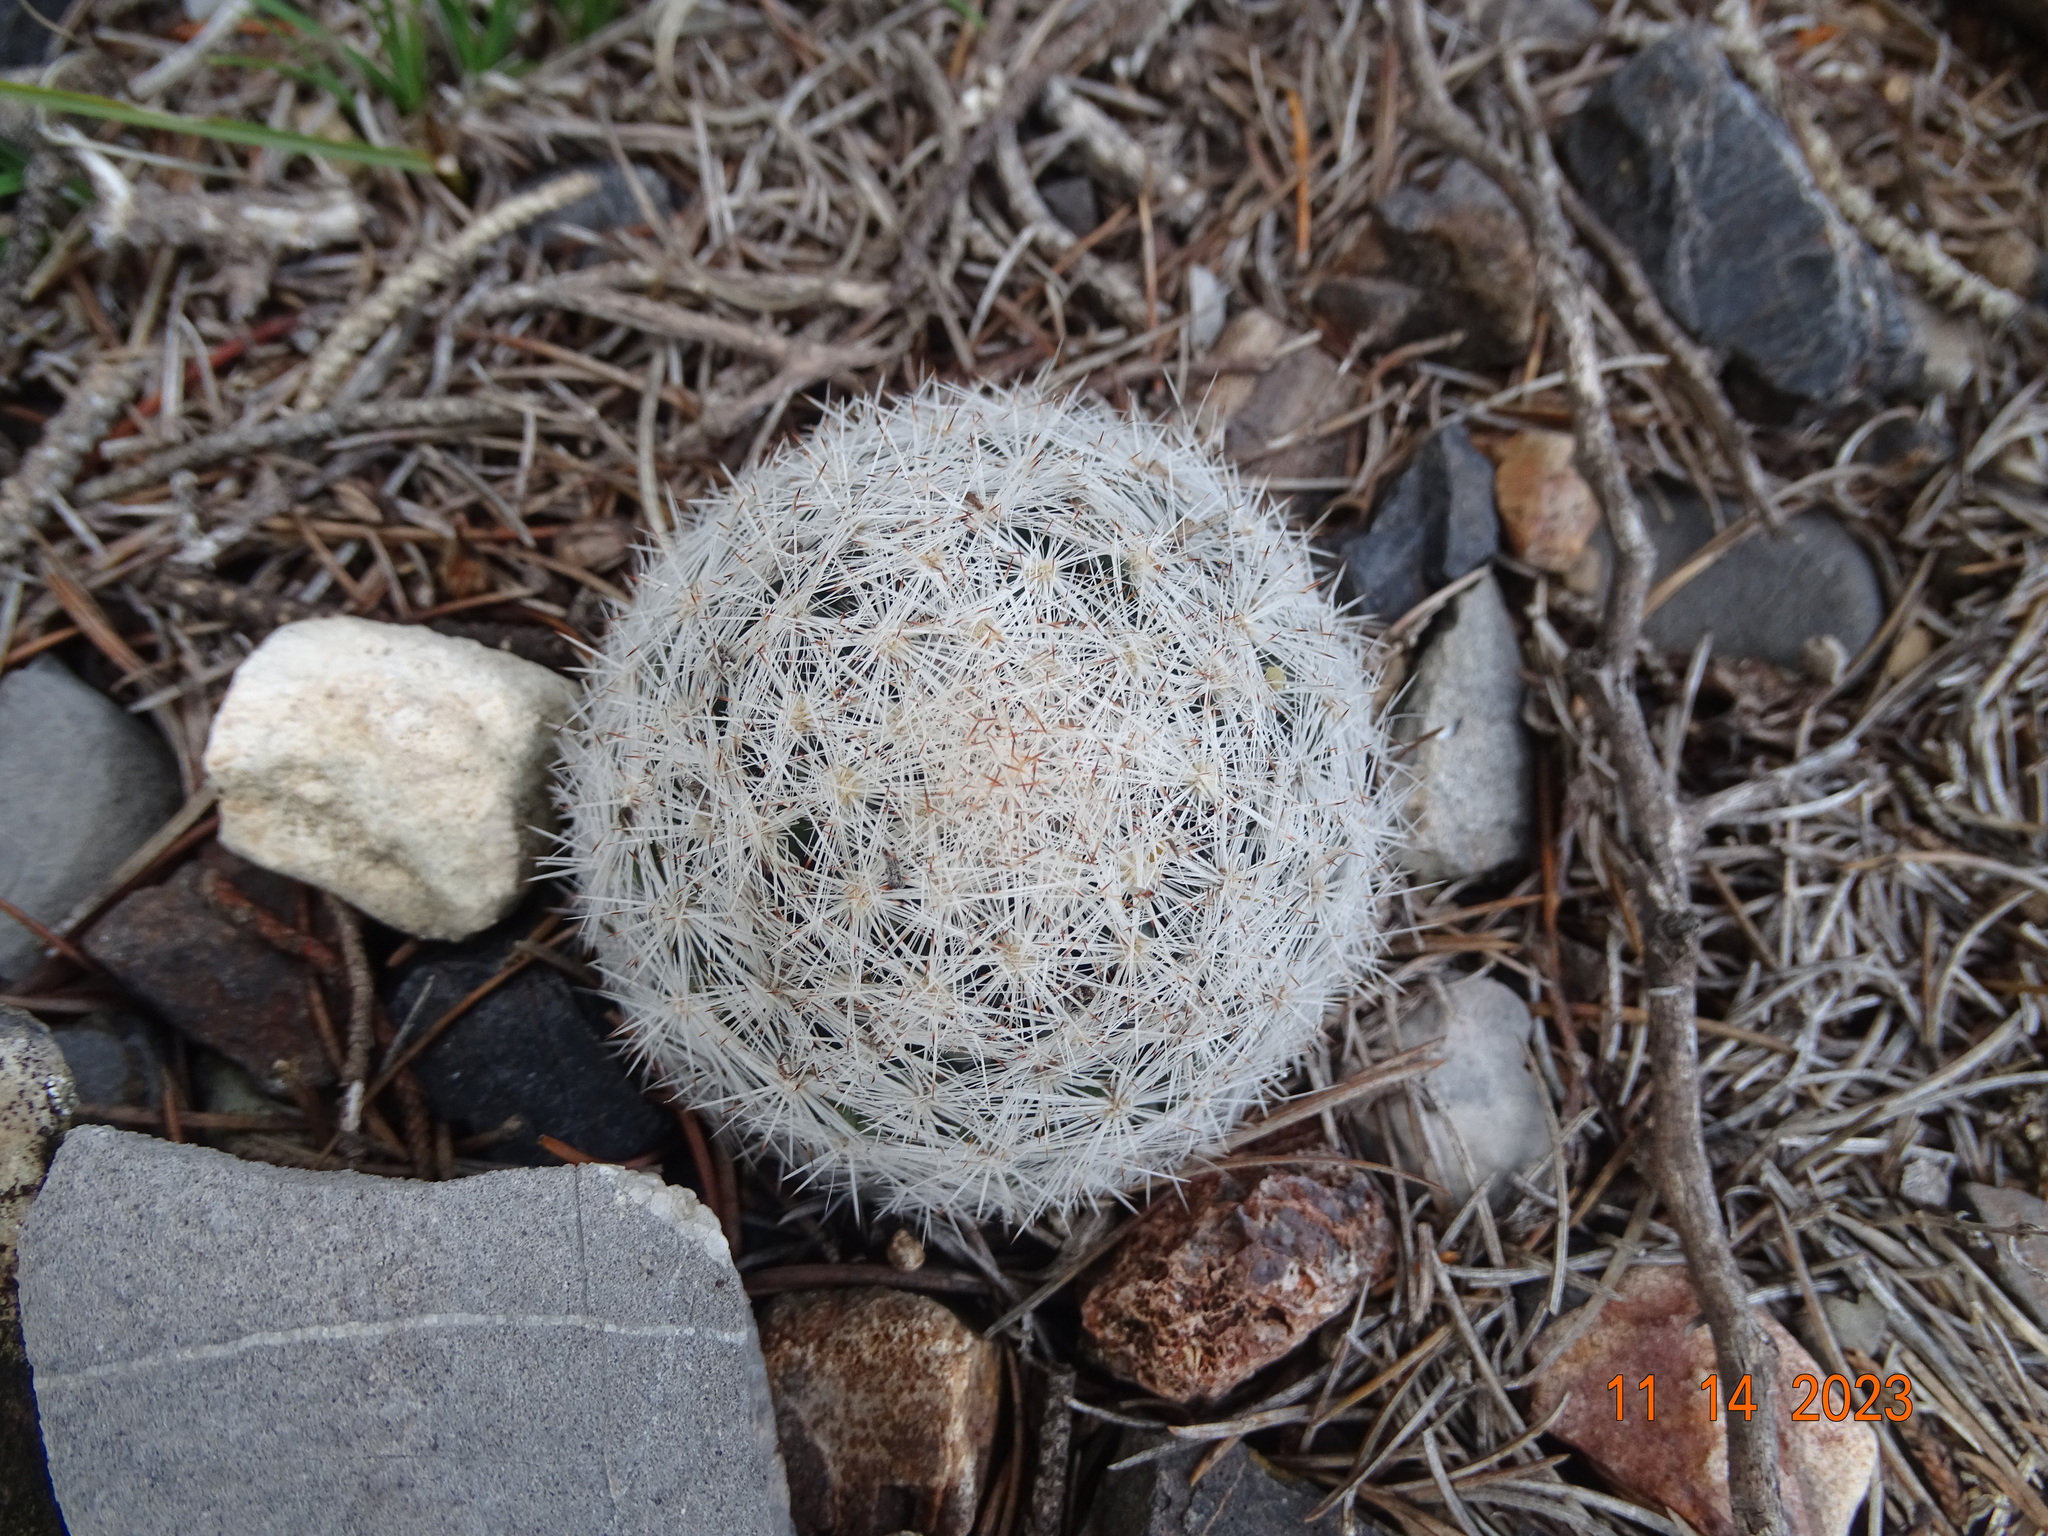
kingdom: Plantae
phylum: Tracheophyta
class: Magnoliopsida
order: Caryophyllales
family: Cactaceae
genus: Mammillaria
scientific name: Mammillaria candida
